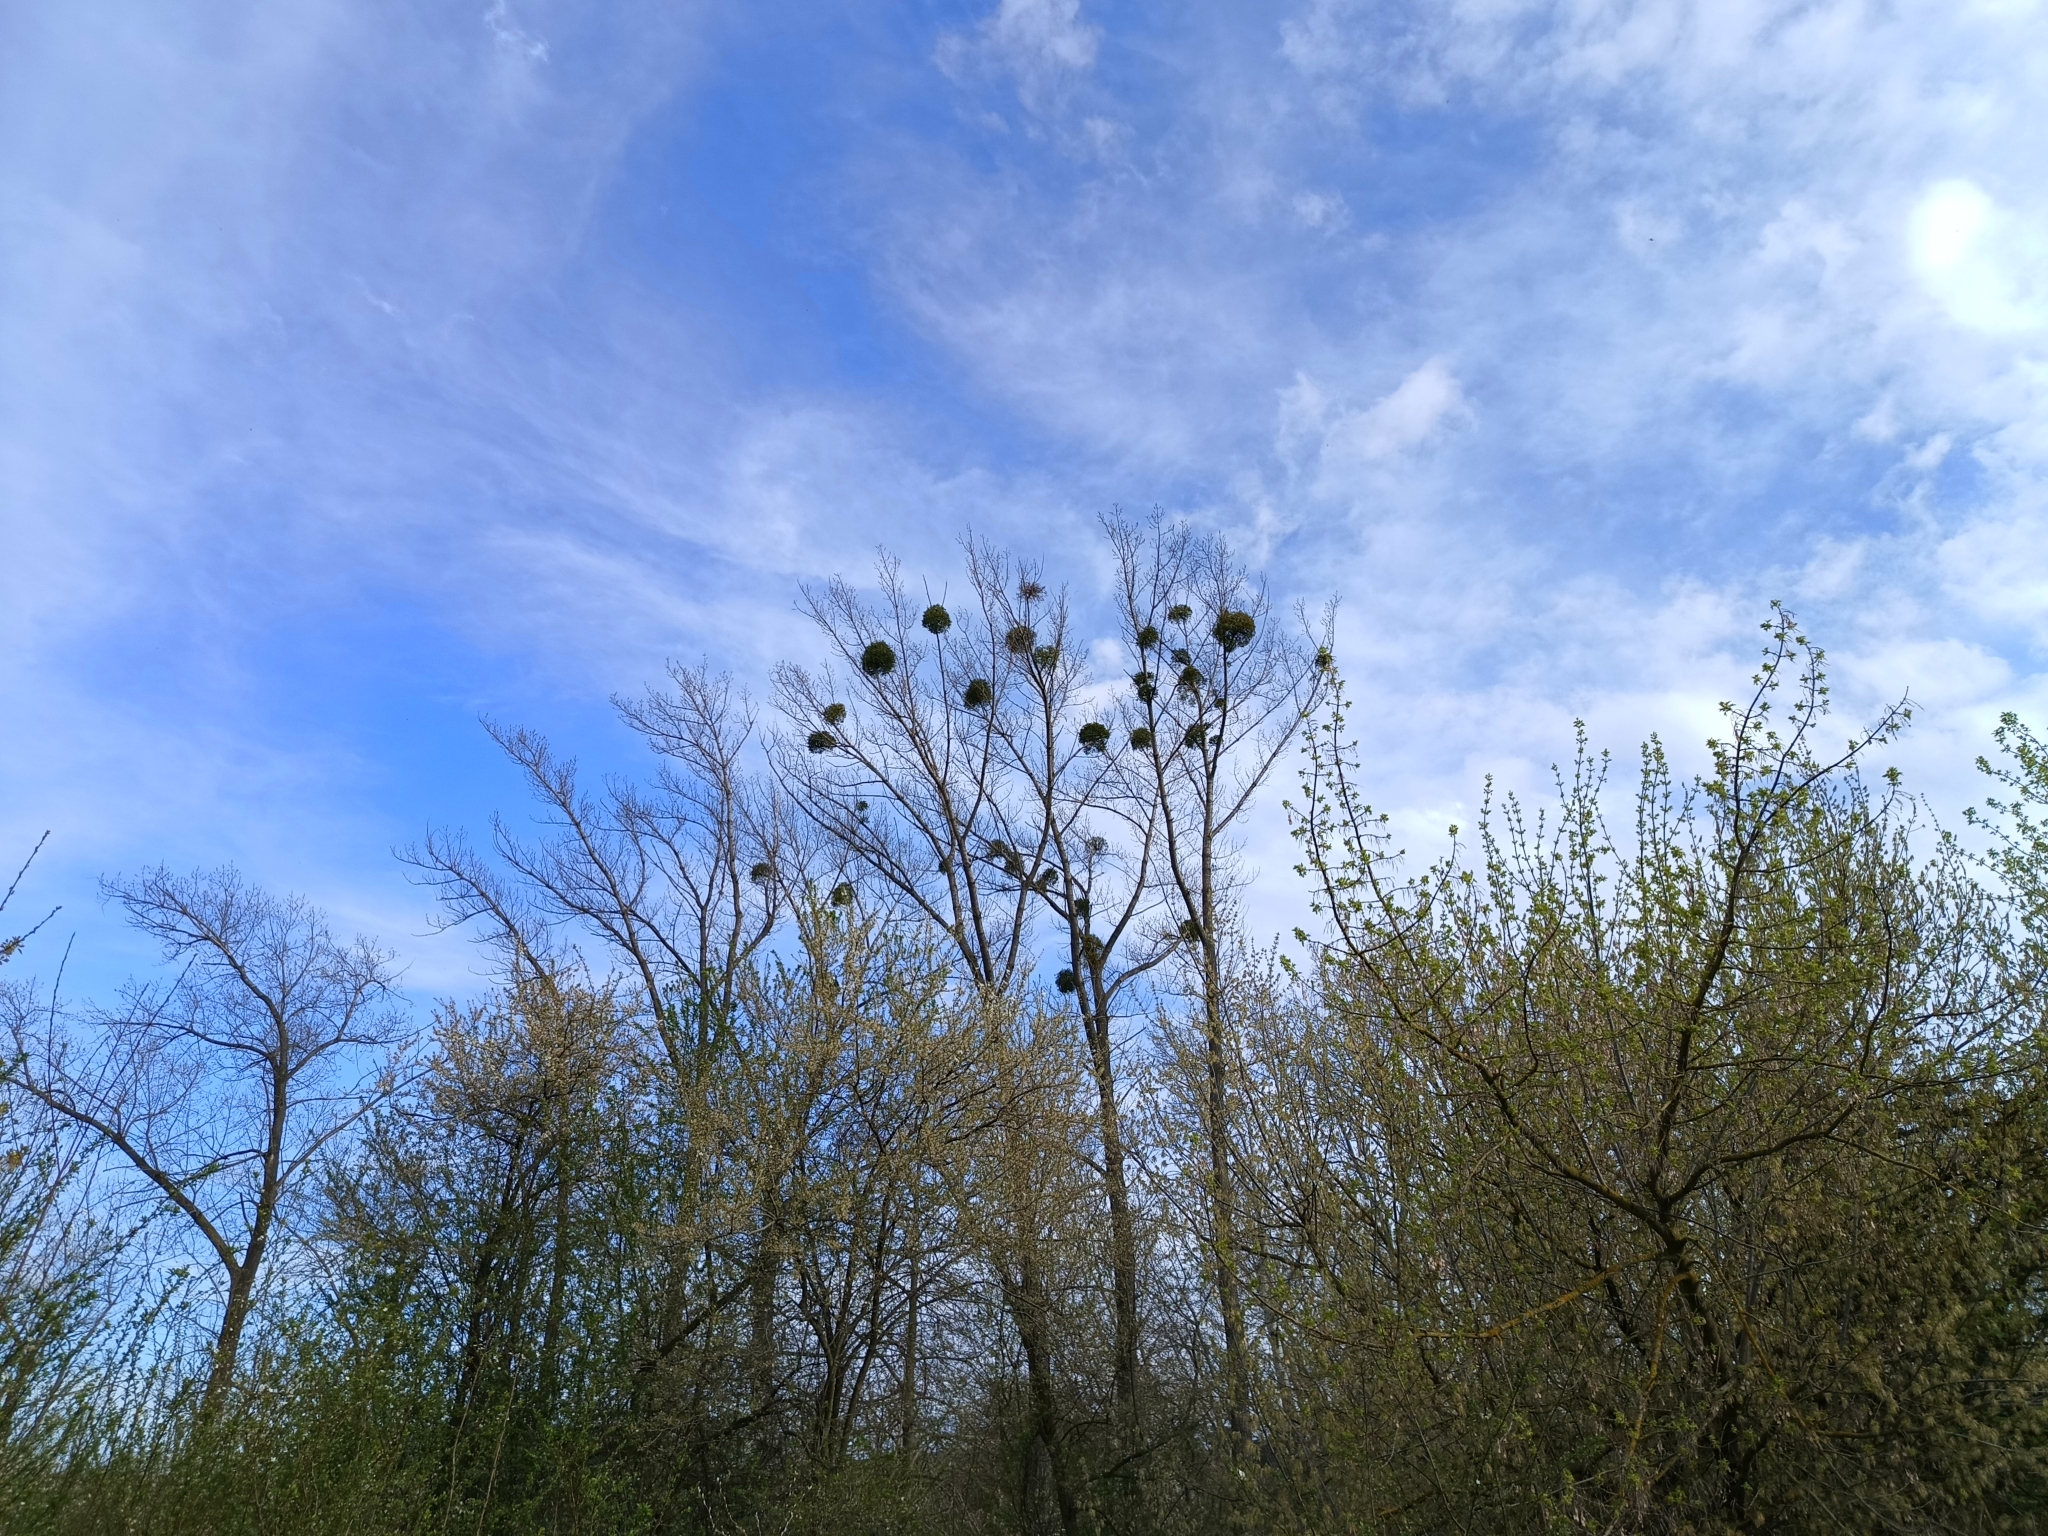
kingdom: Plantae
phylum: Tracheophyta
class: Magnoliopsida
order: Santalales
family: Viscaceae
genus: Viscum
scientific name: Viscum album
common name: Mistletoe
